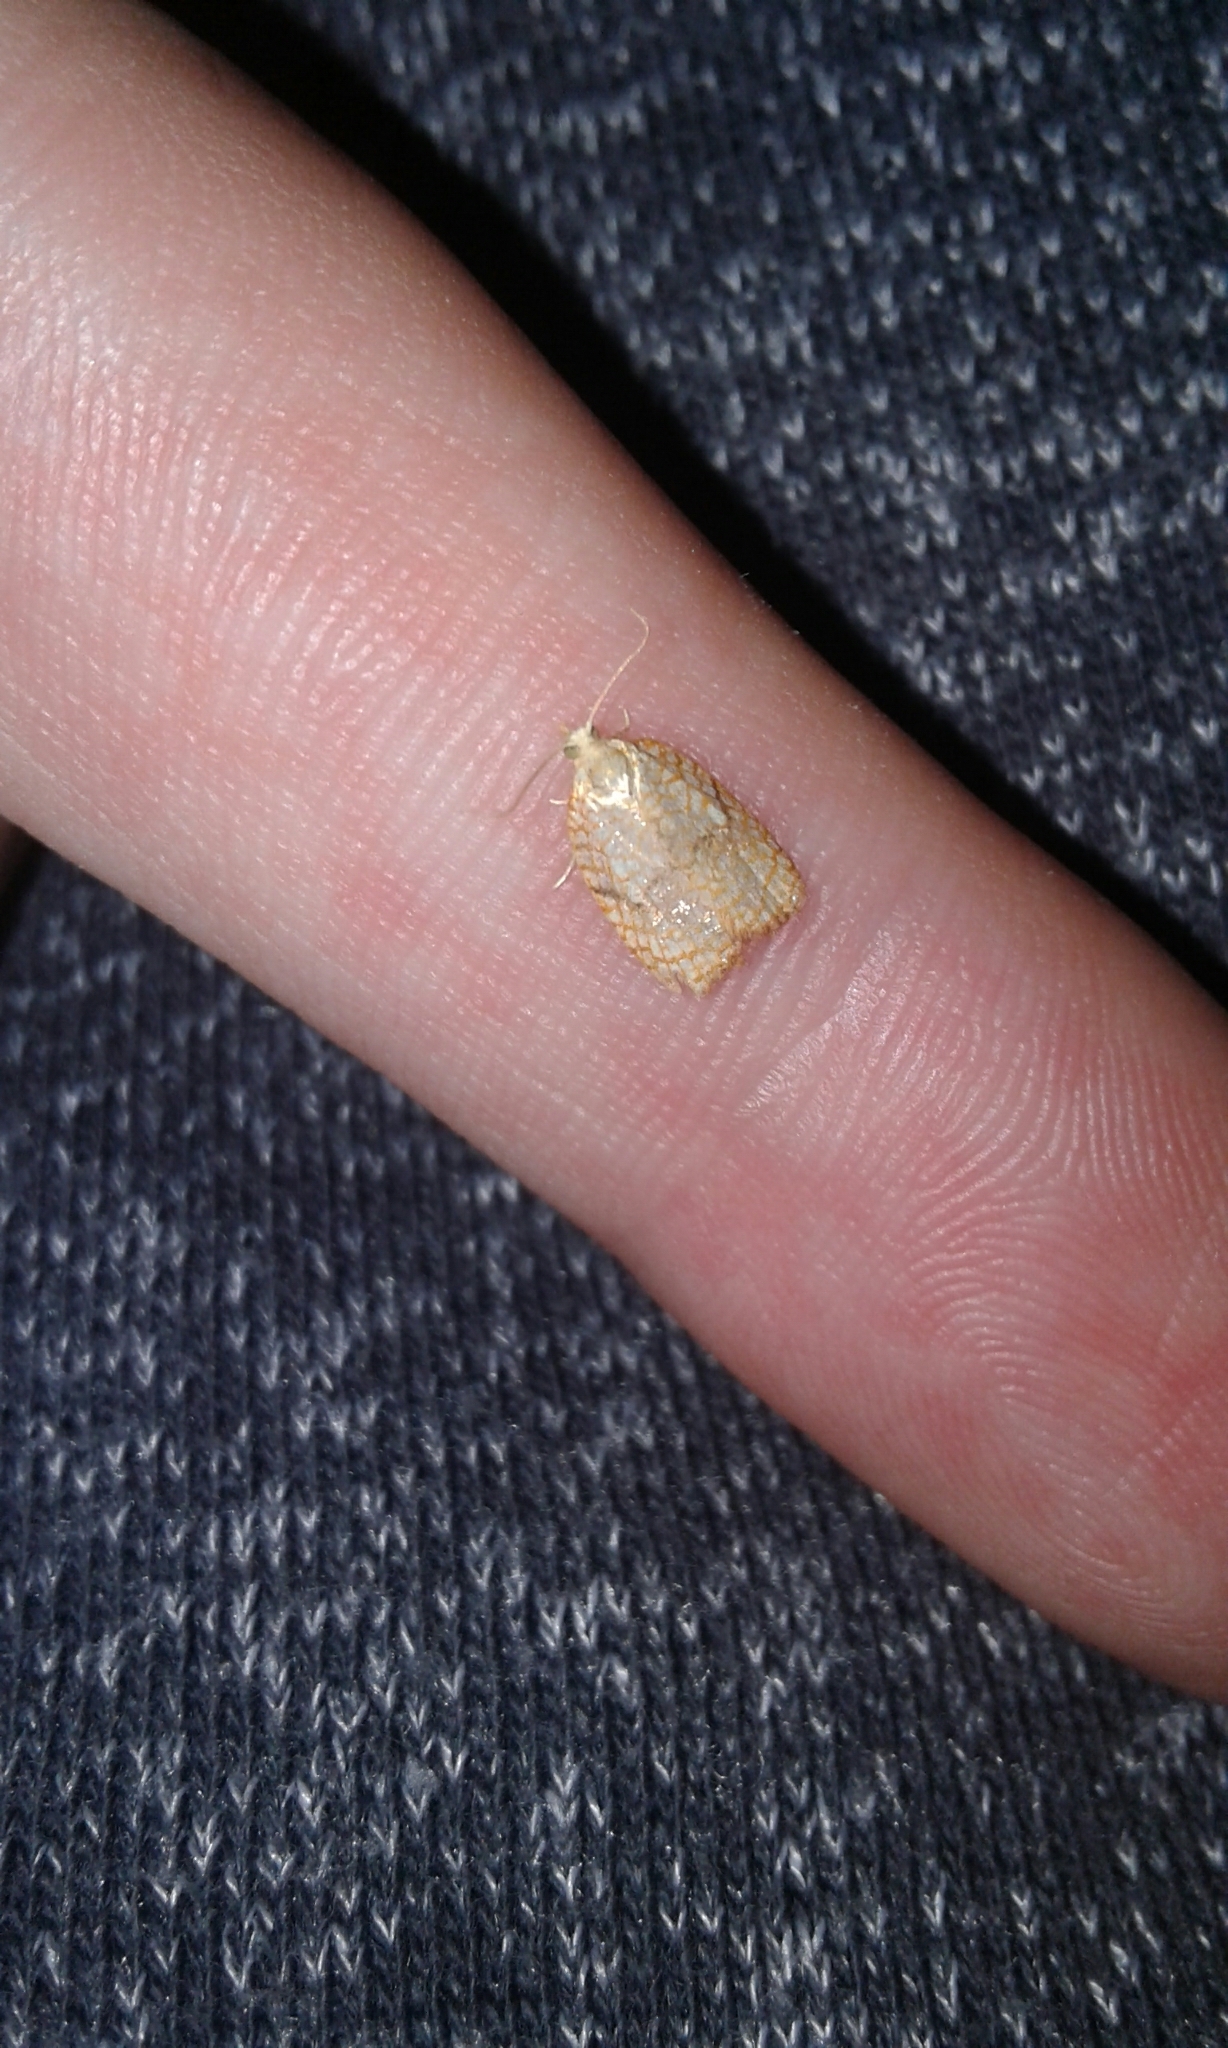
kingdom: Animalia
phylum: Arthropoda
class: Insecta
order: Lepidoptera
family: Tortricidae
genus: Acleris
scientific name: Acleris forsskaleana
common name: Maple button
